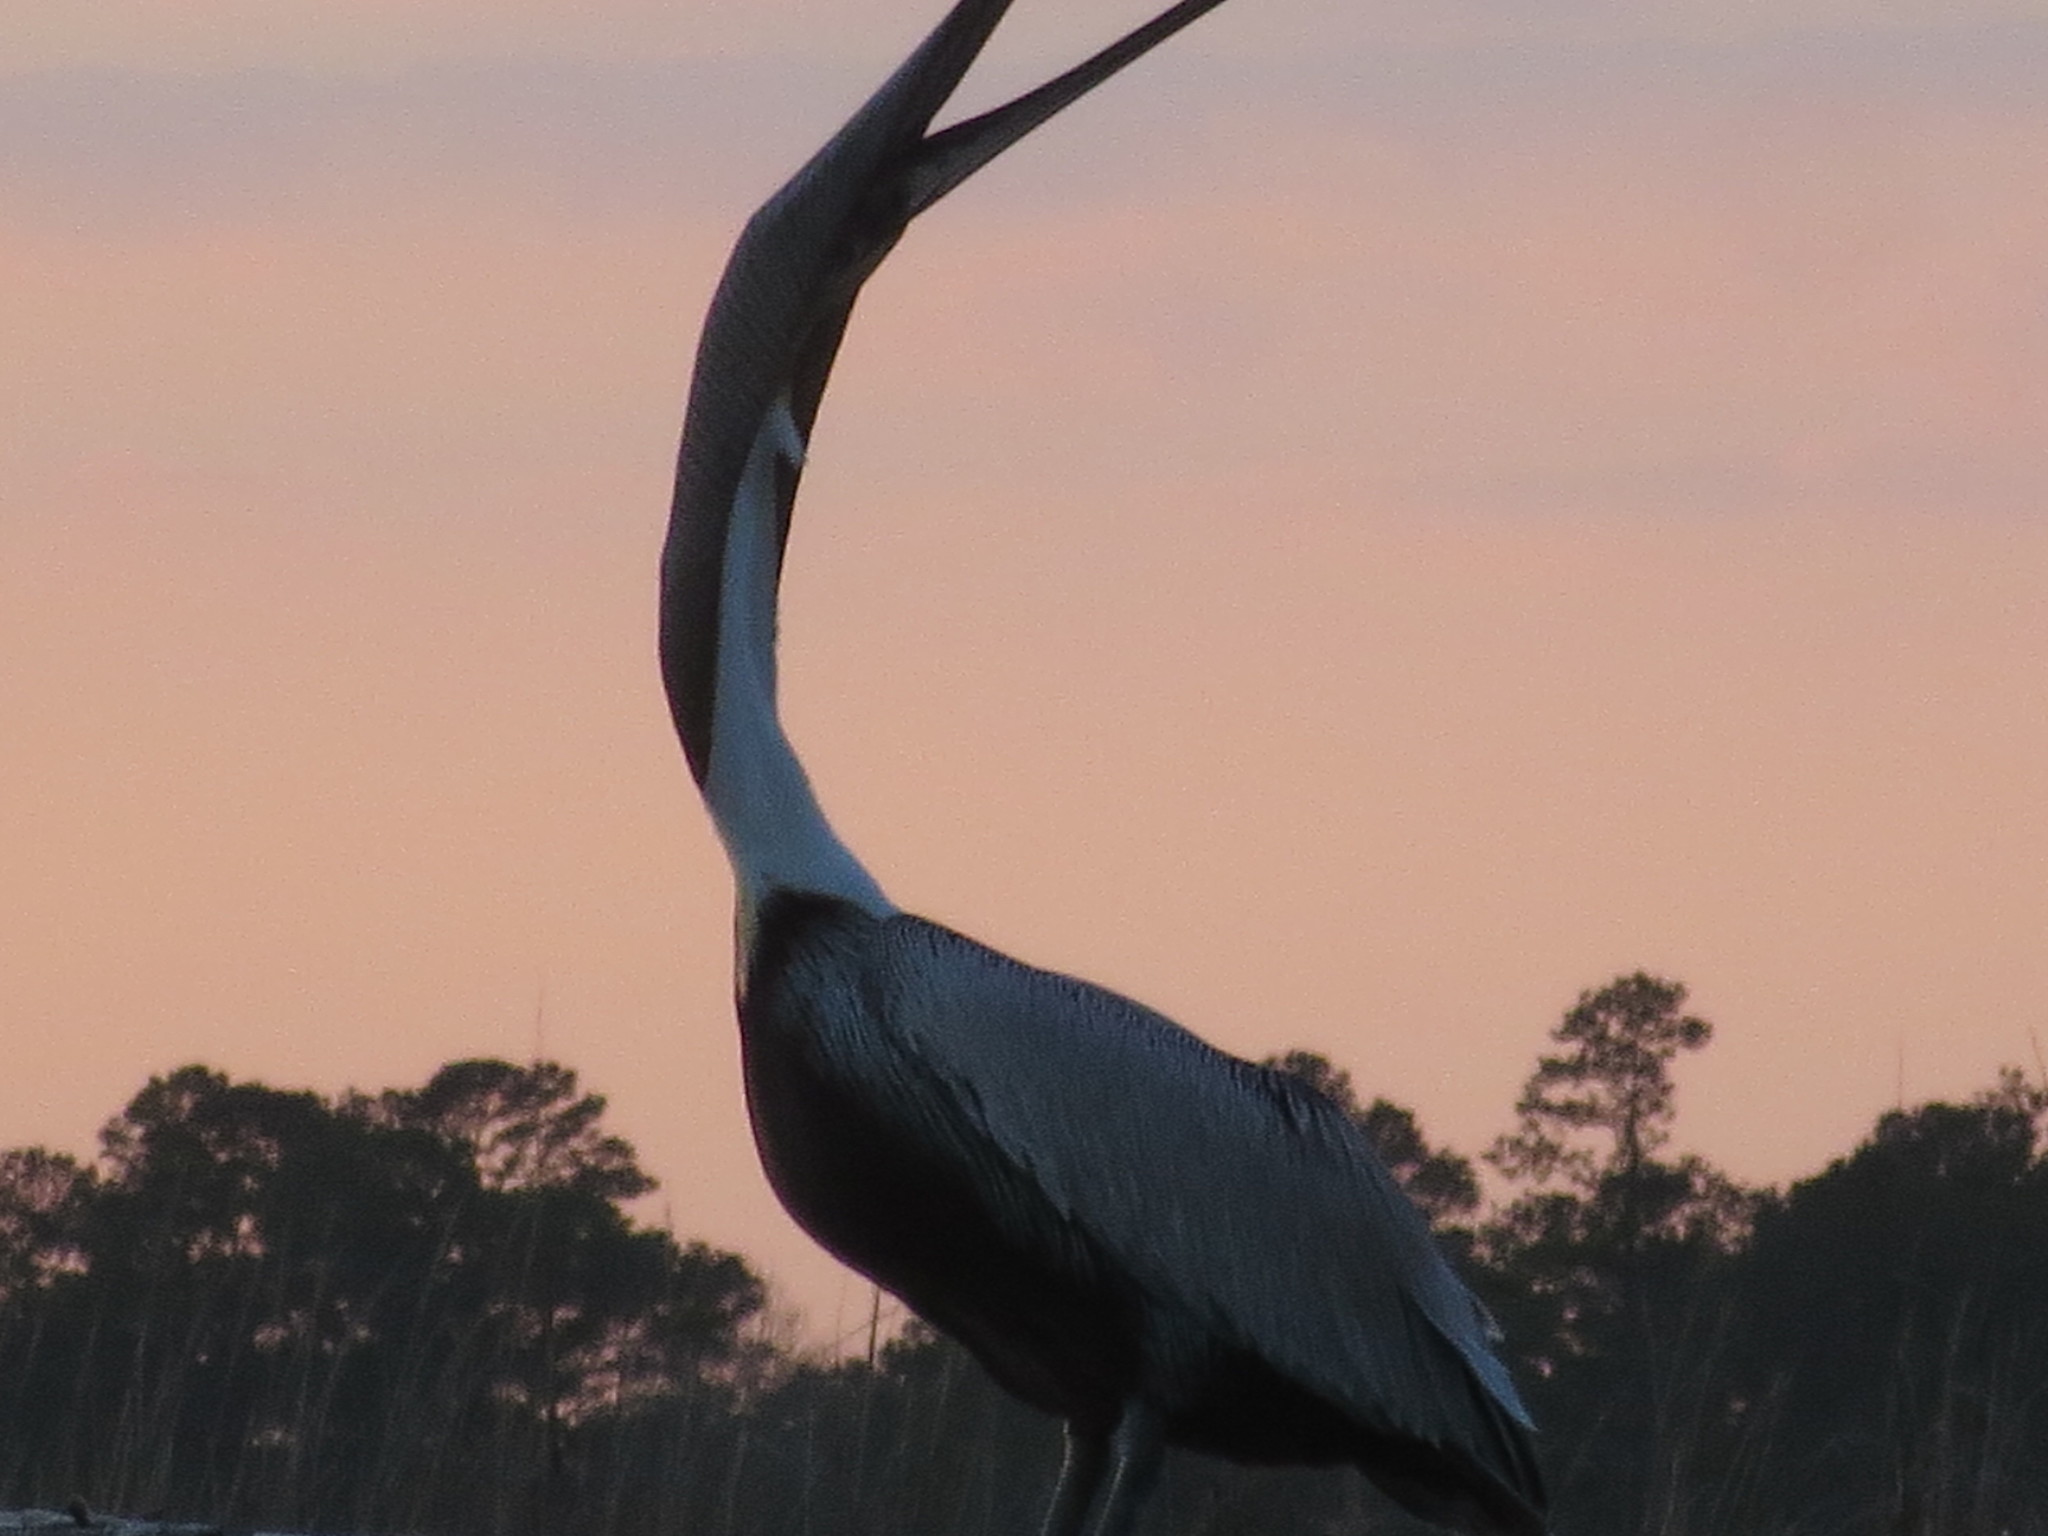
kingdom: Animalia
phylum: Chordata
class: Aves
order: Pelecaniformes
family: Pelecanidae
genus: Pelecanus
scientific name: Pelecanus occidentalis
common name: Brown pelican
